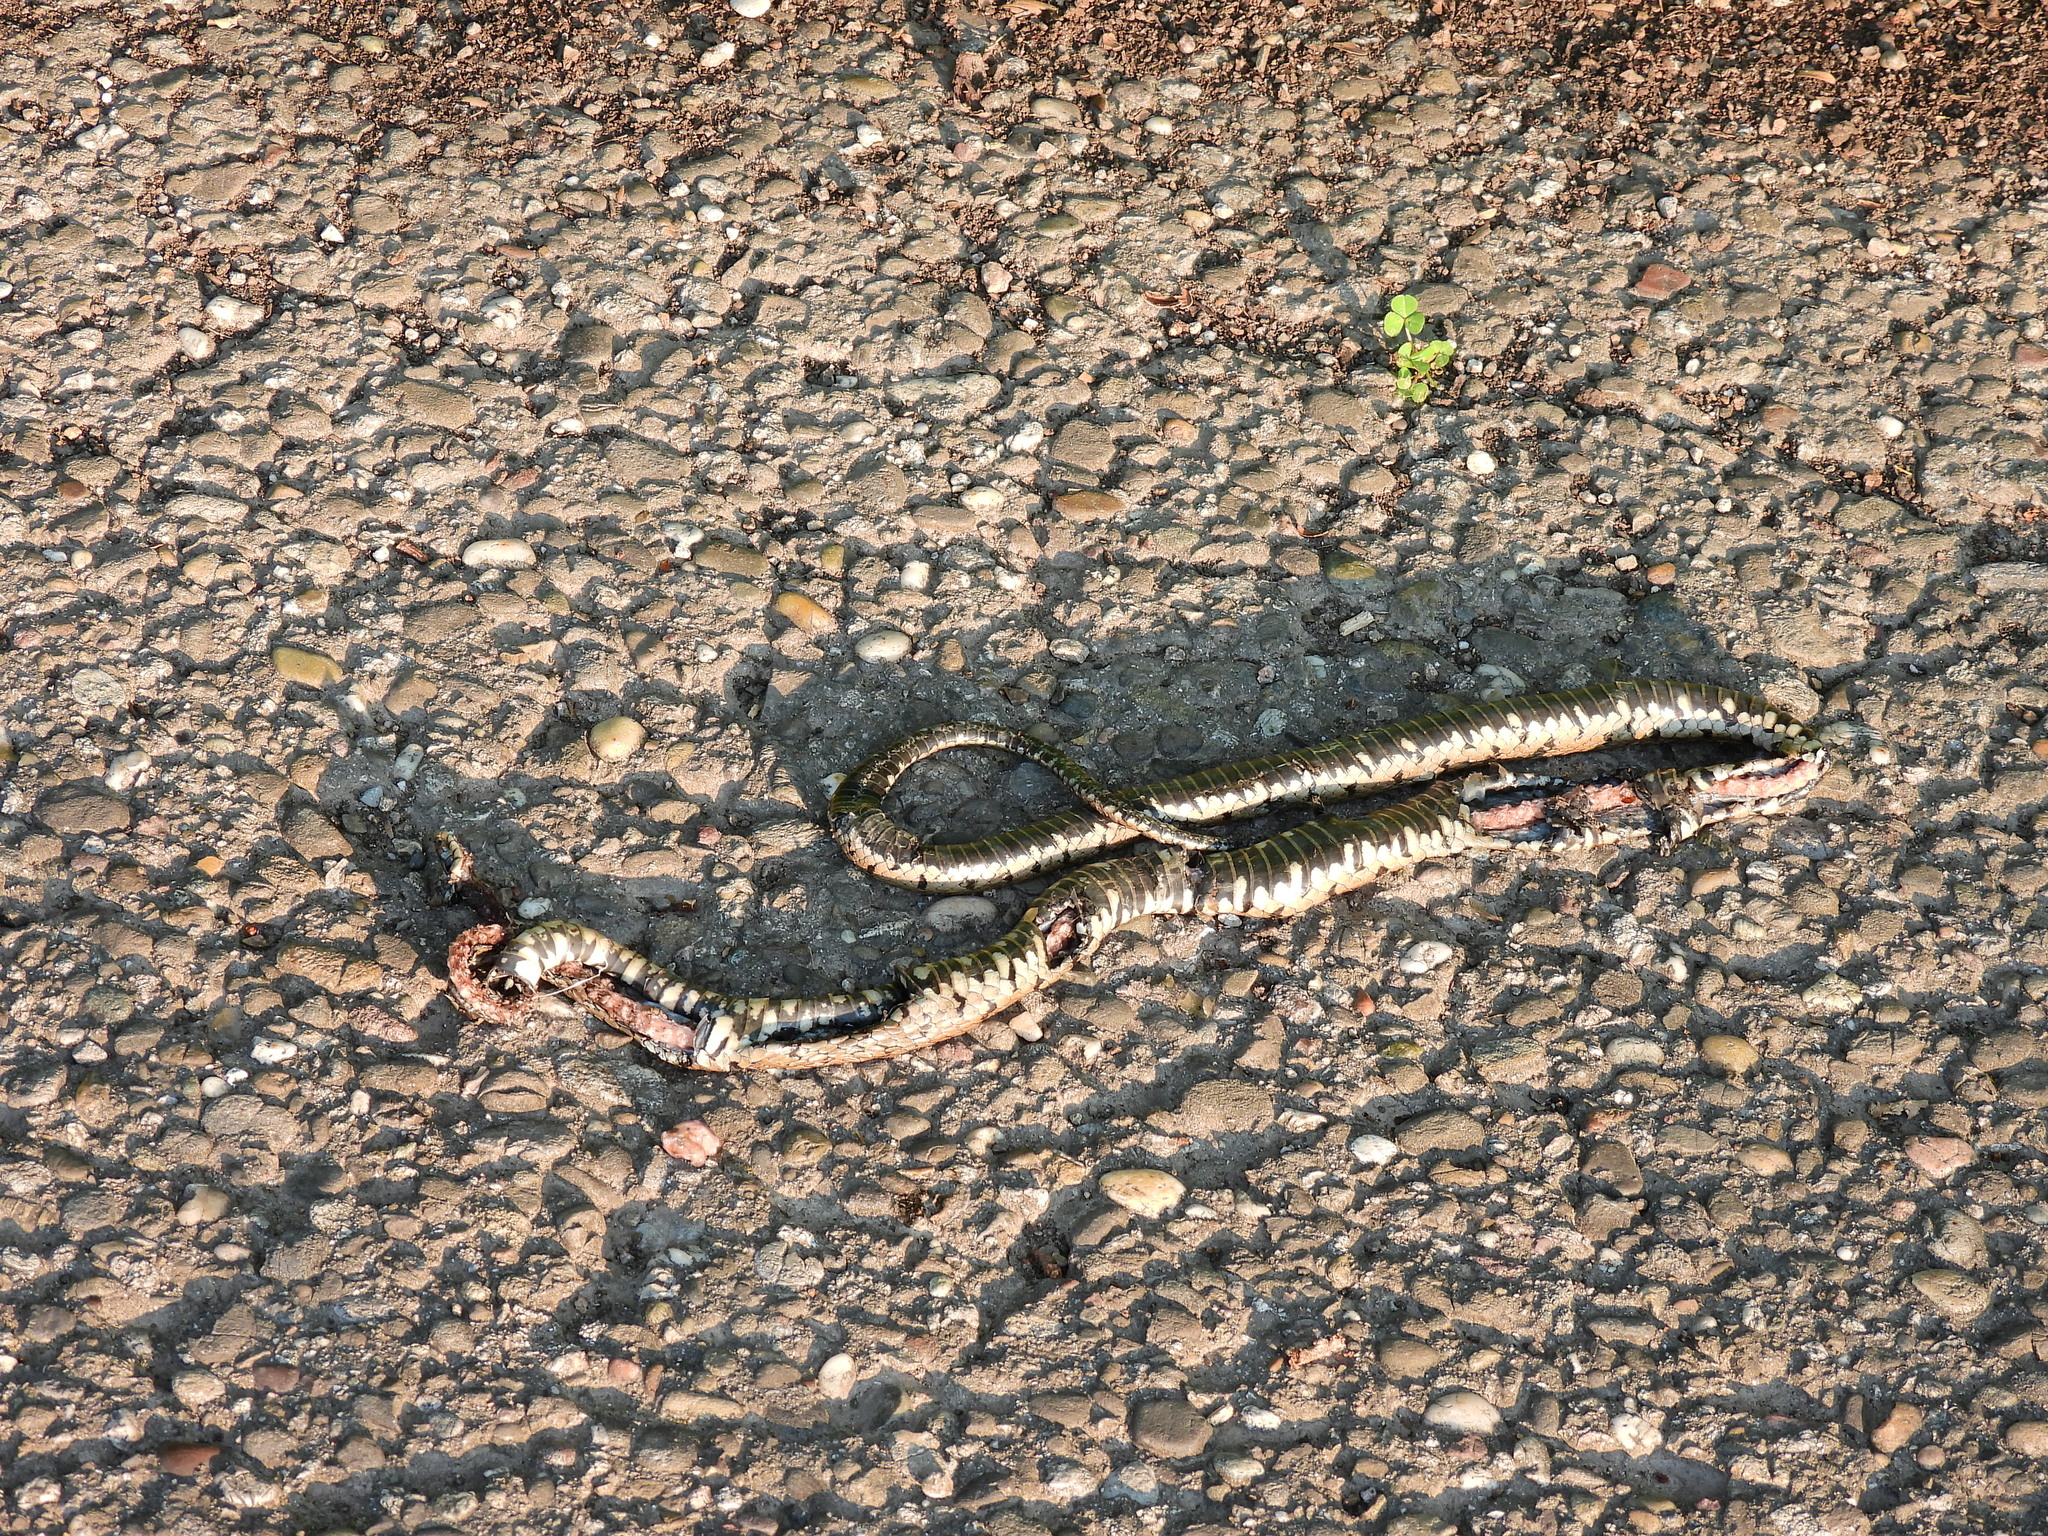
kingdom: Animalia
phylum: Chordata
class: Squamata
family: Colubridae
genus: Natrix
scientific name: Natrix helvetica
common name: Banded grass snake
